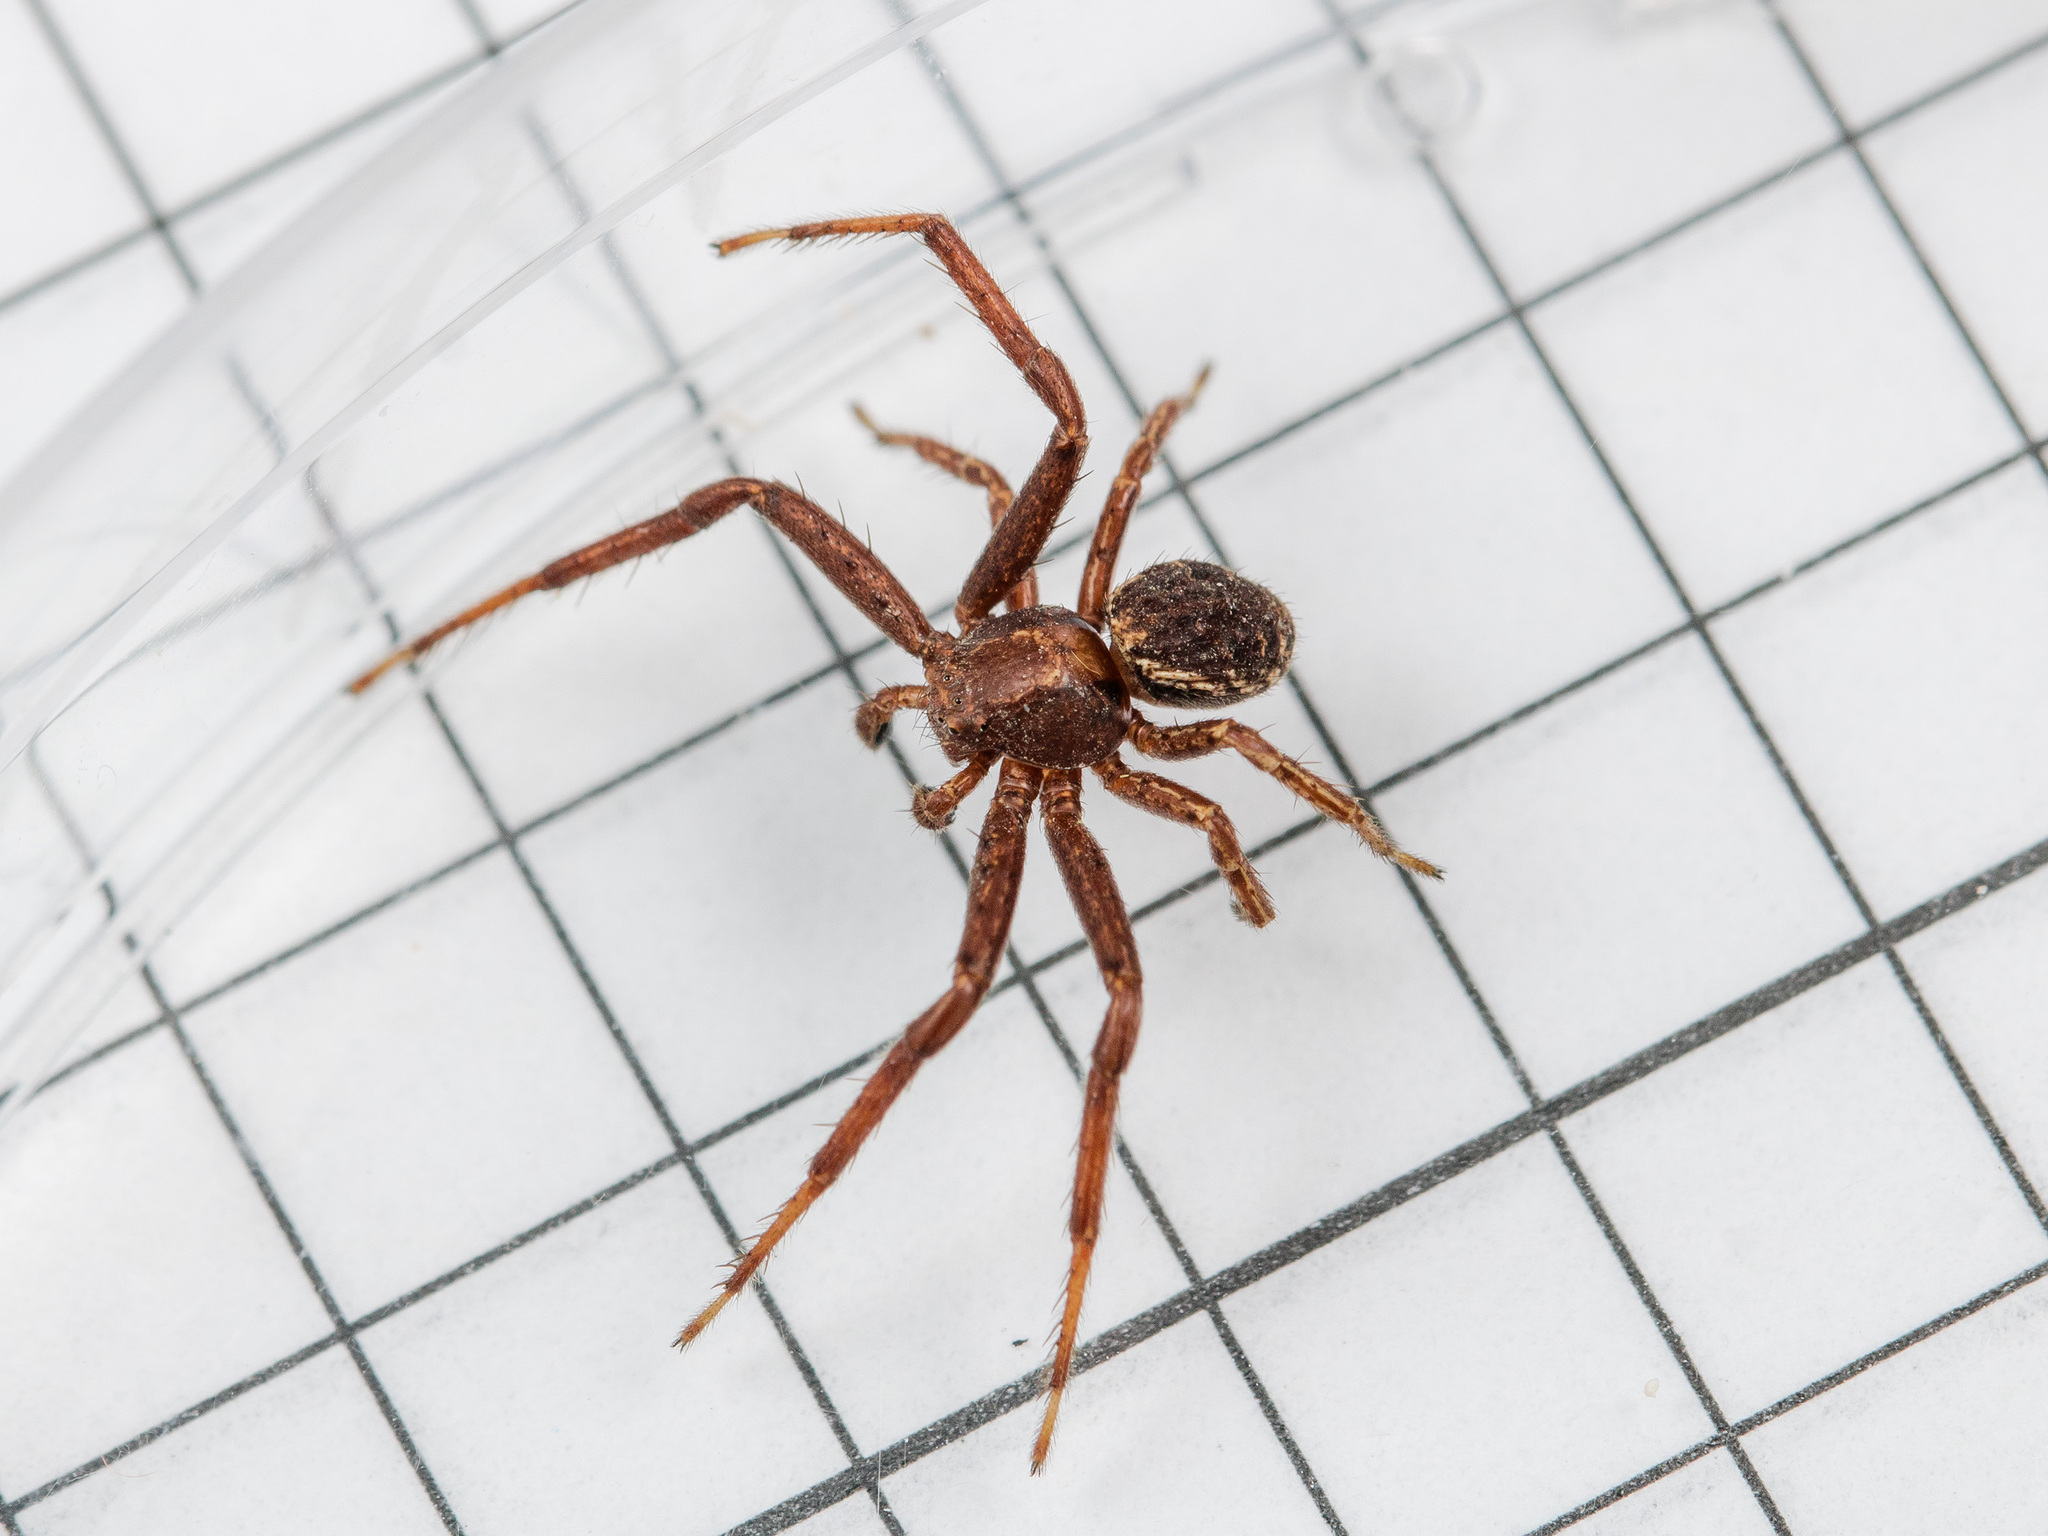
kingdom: Animalia
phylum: Arthropoda
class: Arachnida
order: Araneae
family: Thomisidae
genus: Xysticus
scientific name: Xysticus kuzgi
